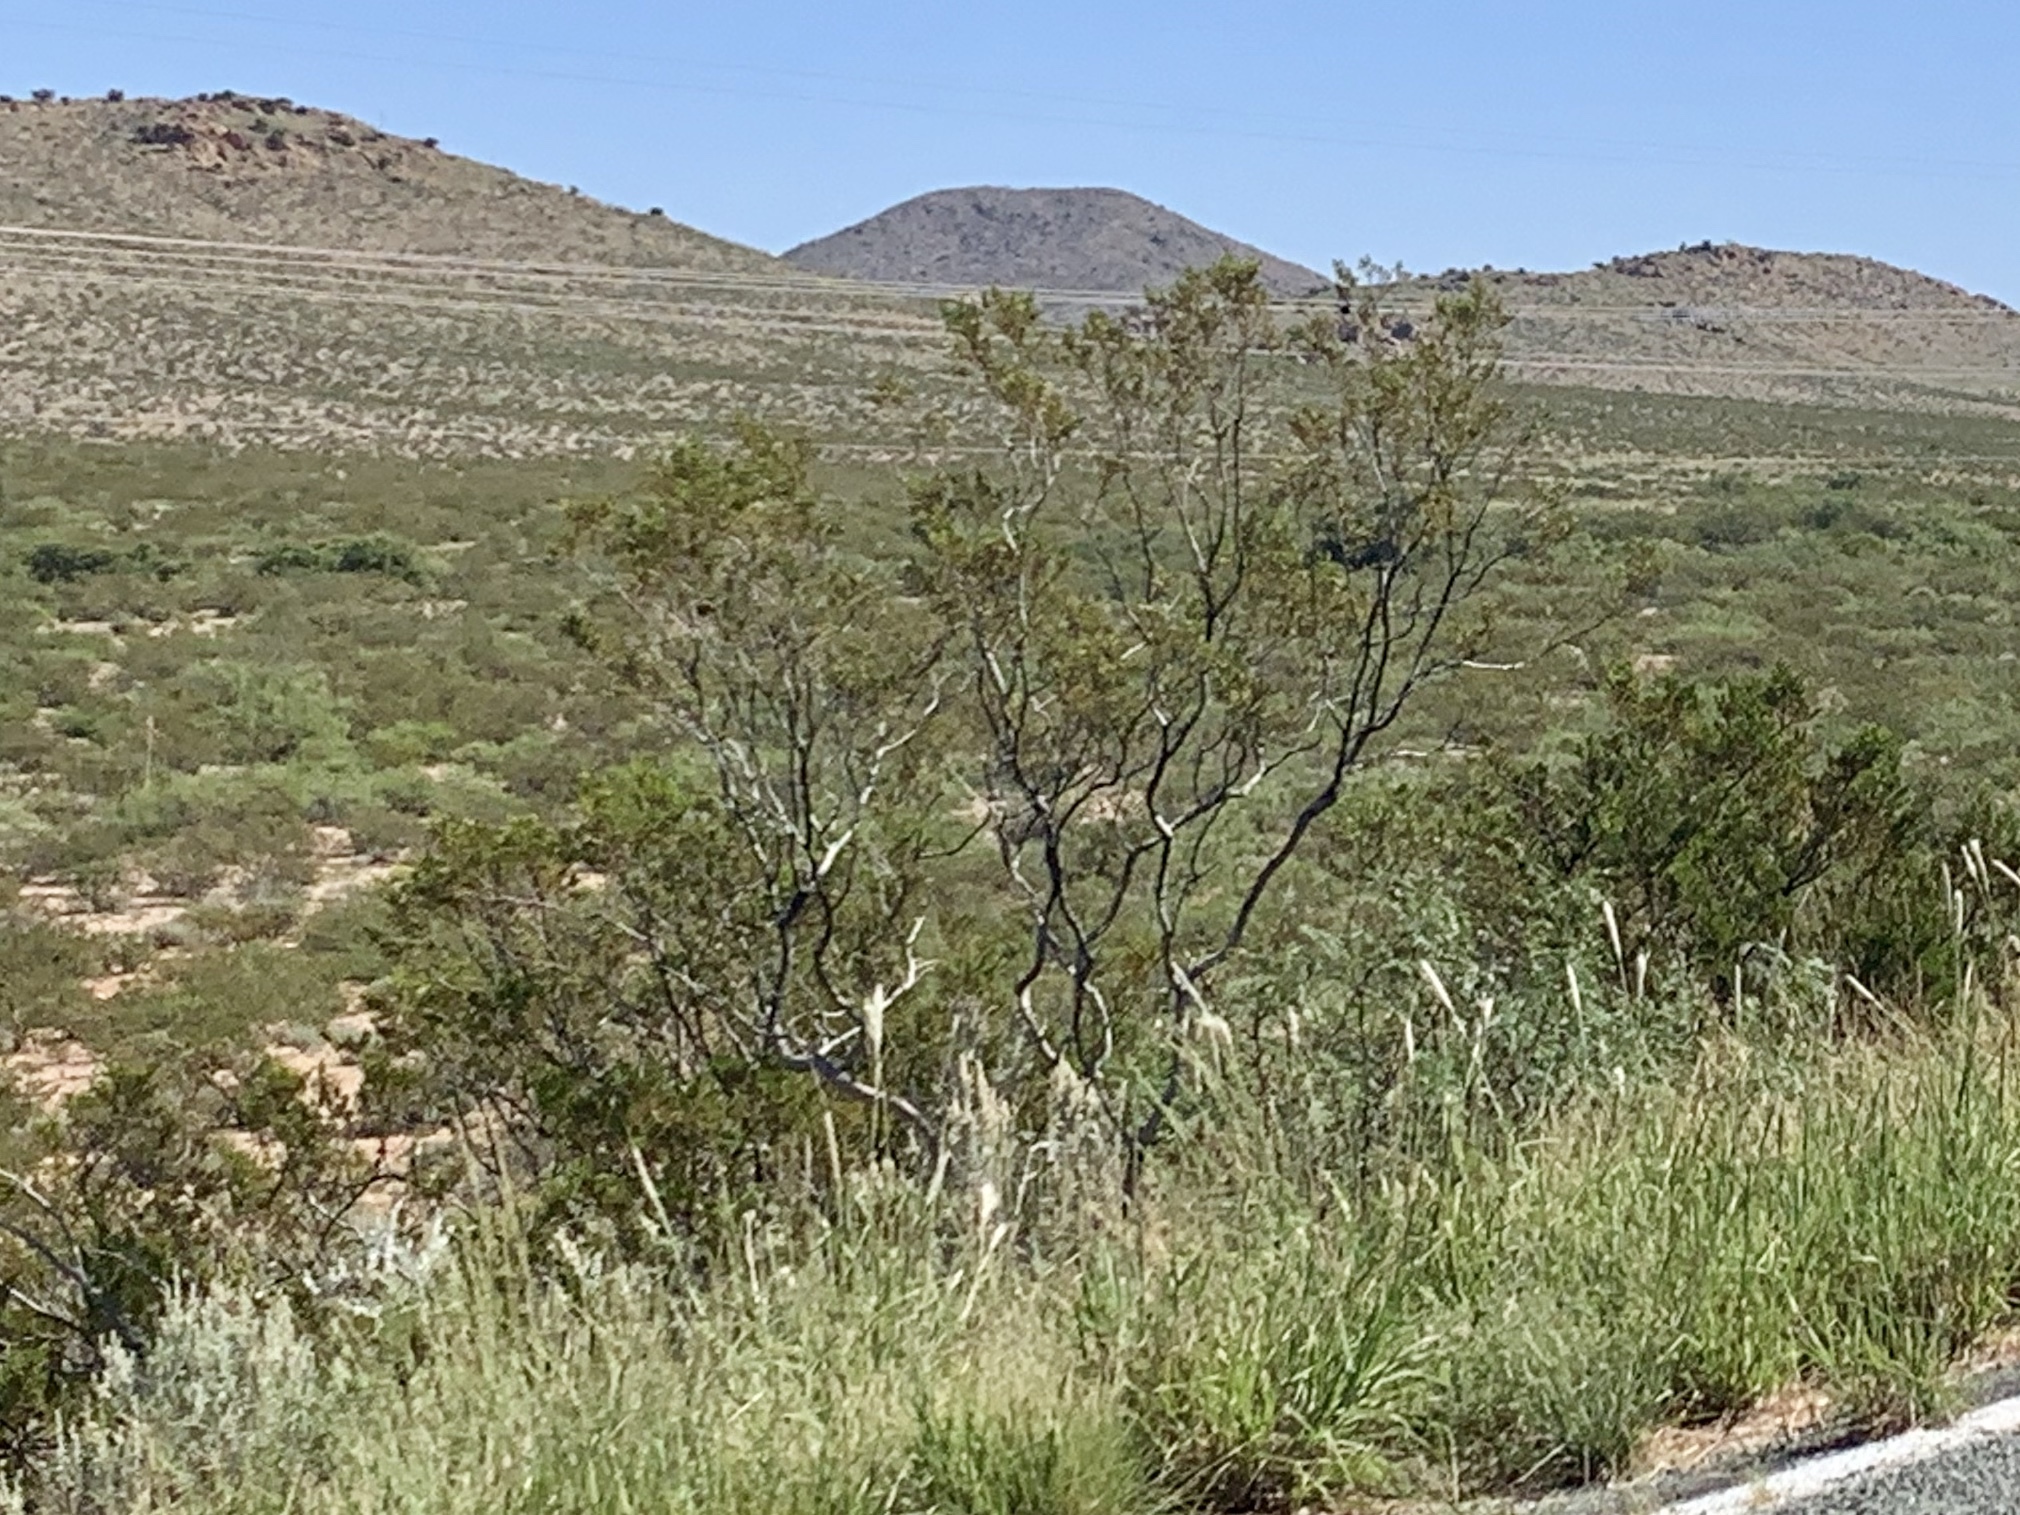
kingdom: Plantae
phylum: Tracheophyta
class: Magnoliopsida
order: Zygophyllales
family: Zygophyllaceae
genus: Larrea
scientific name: Larrea tridentata
